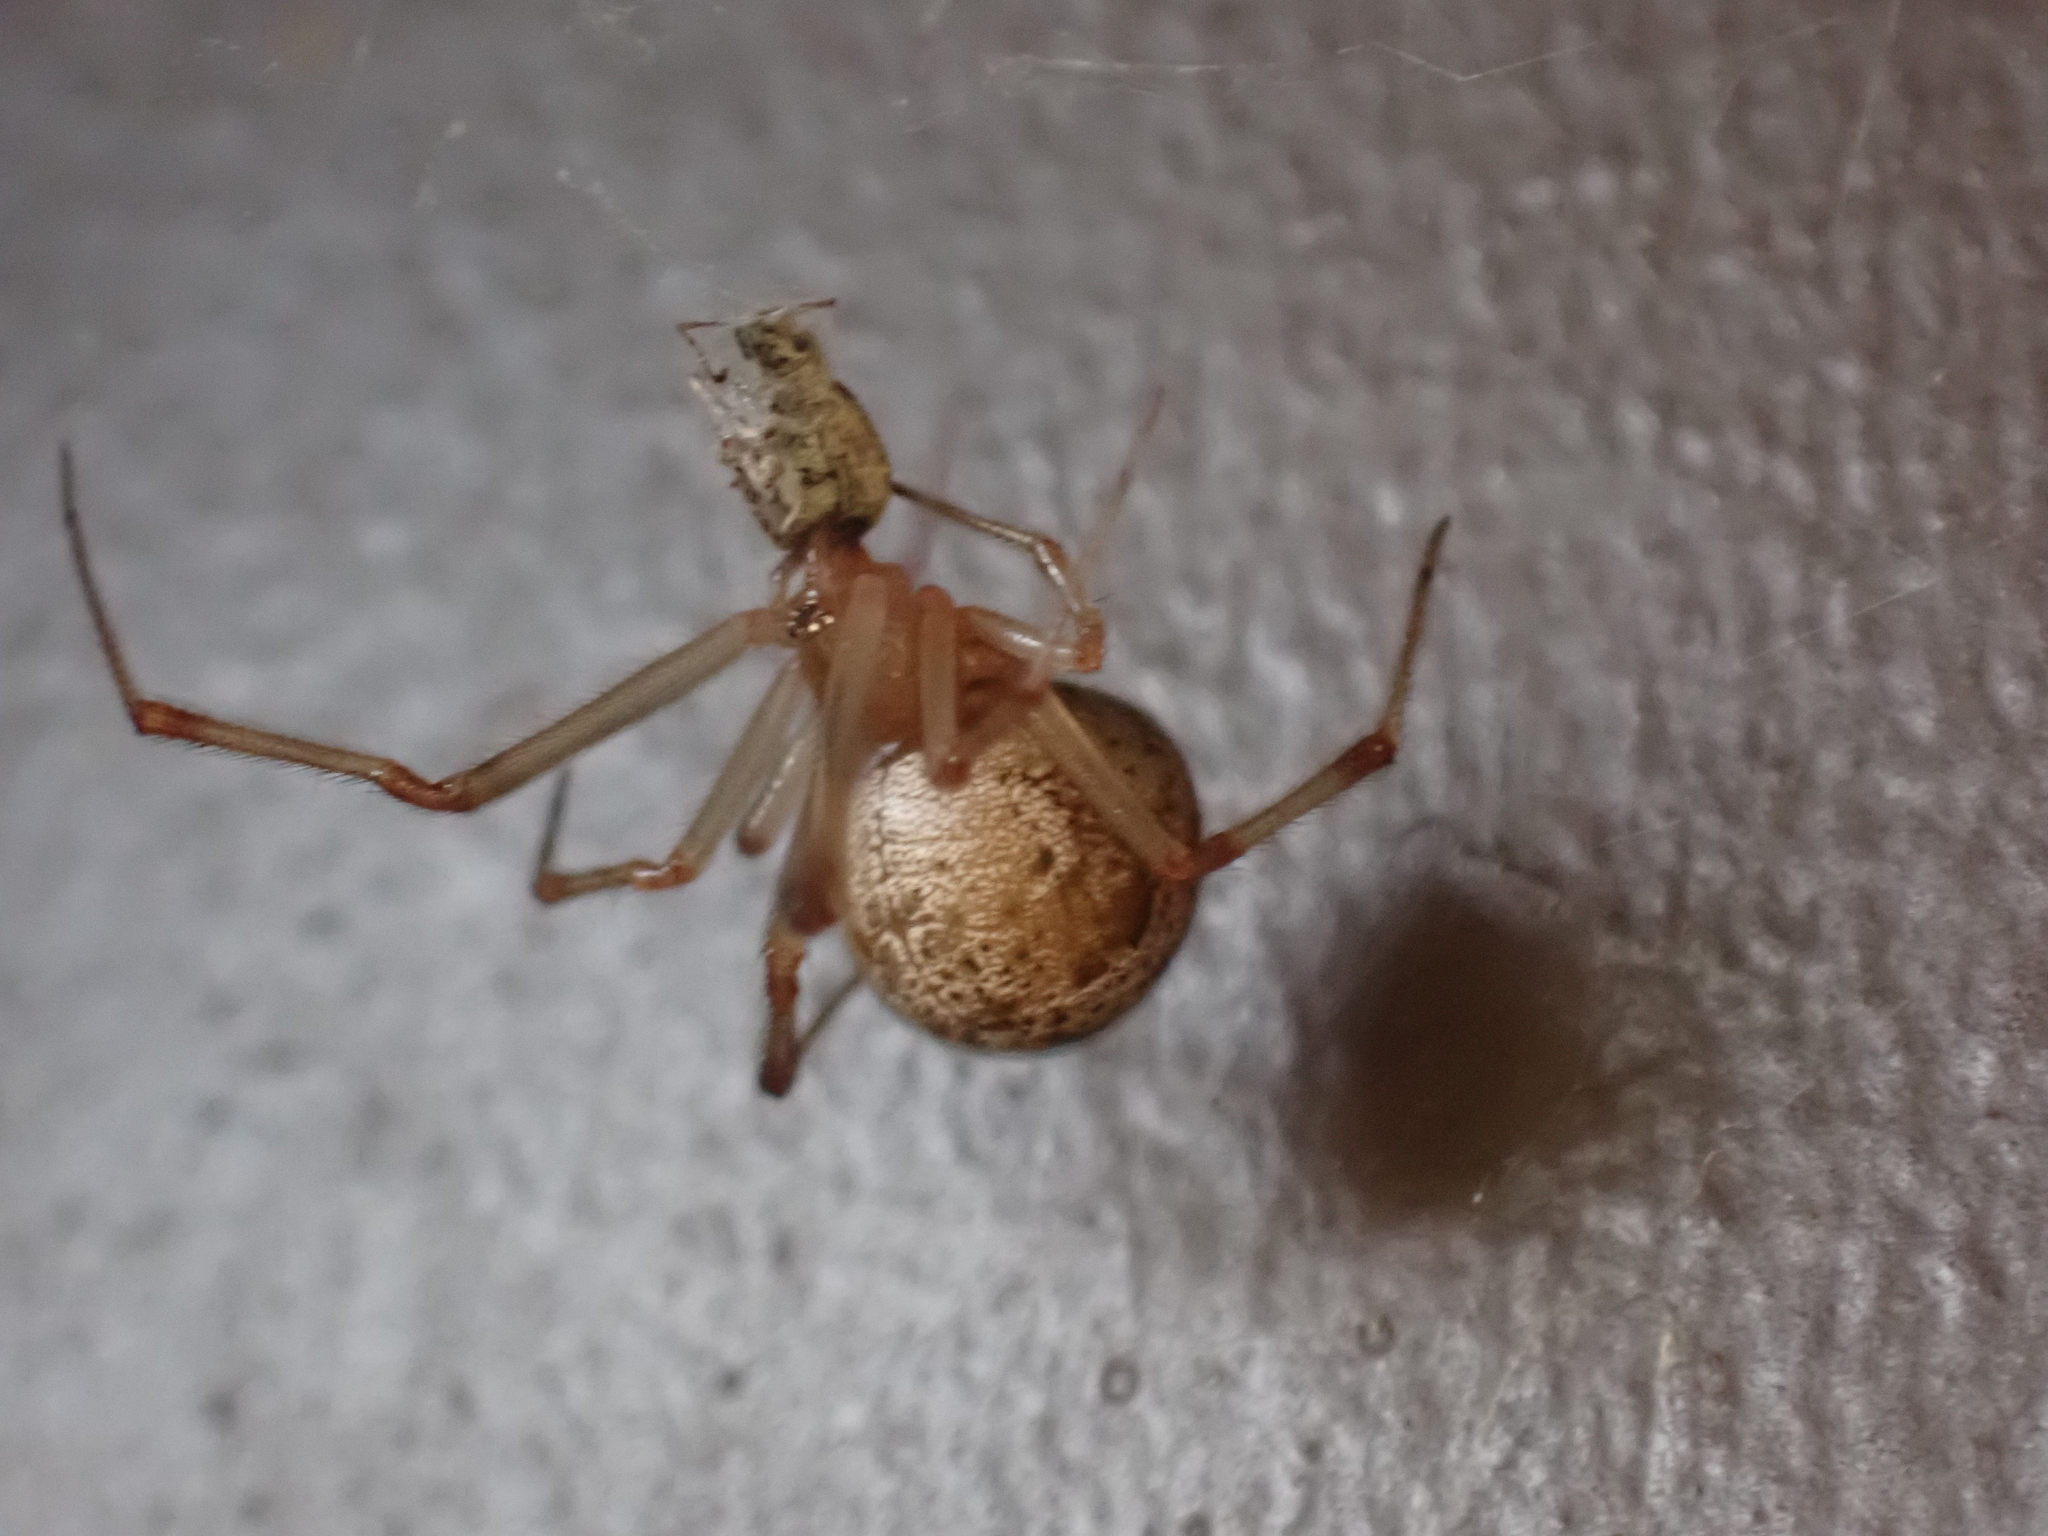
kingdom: Animalia
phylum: Arthropoda
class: Arachnida
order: Araneae
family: Theridiidae
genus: Parasteatoda
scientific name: Parasteatoda tepidariorum
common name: Common house spider
